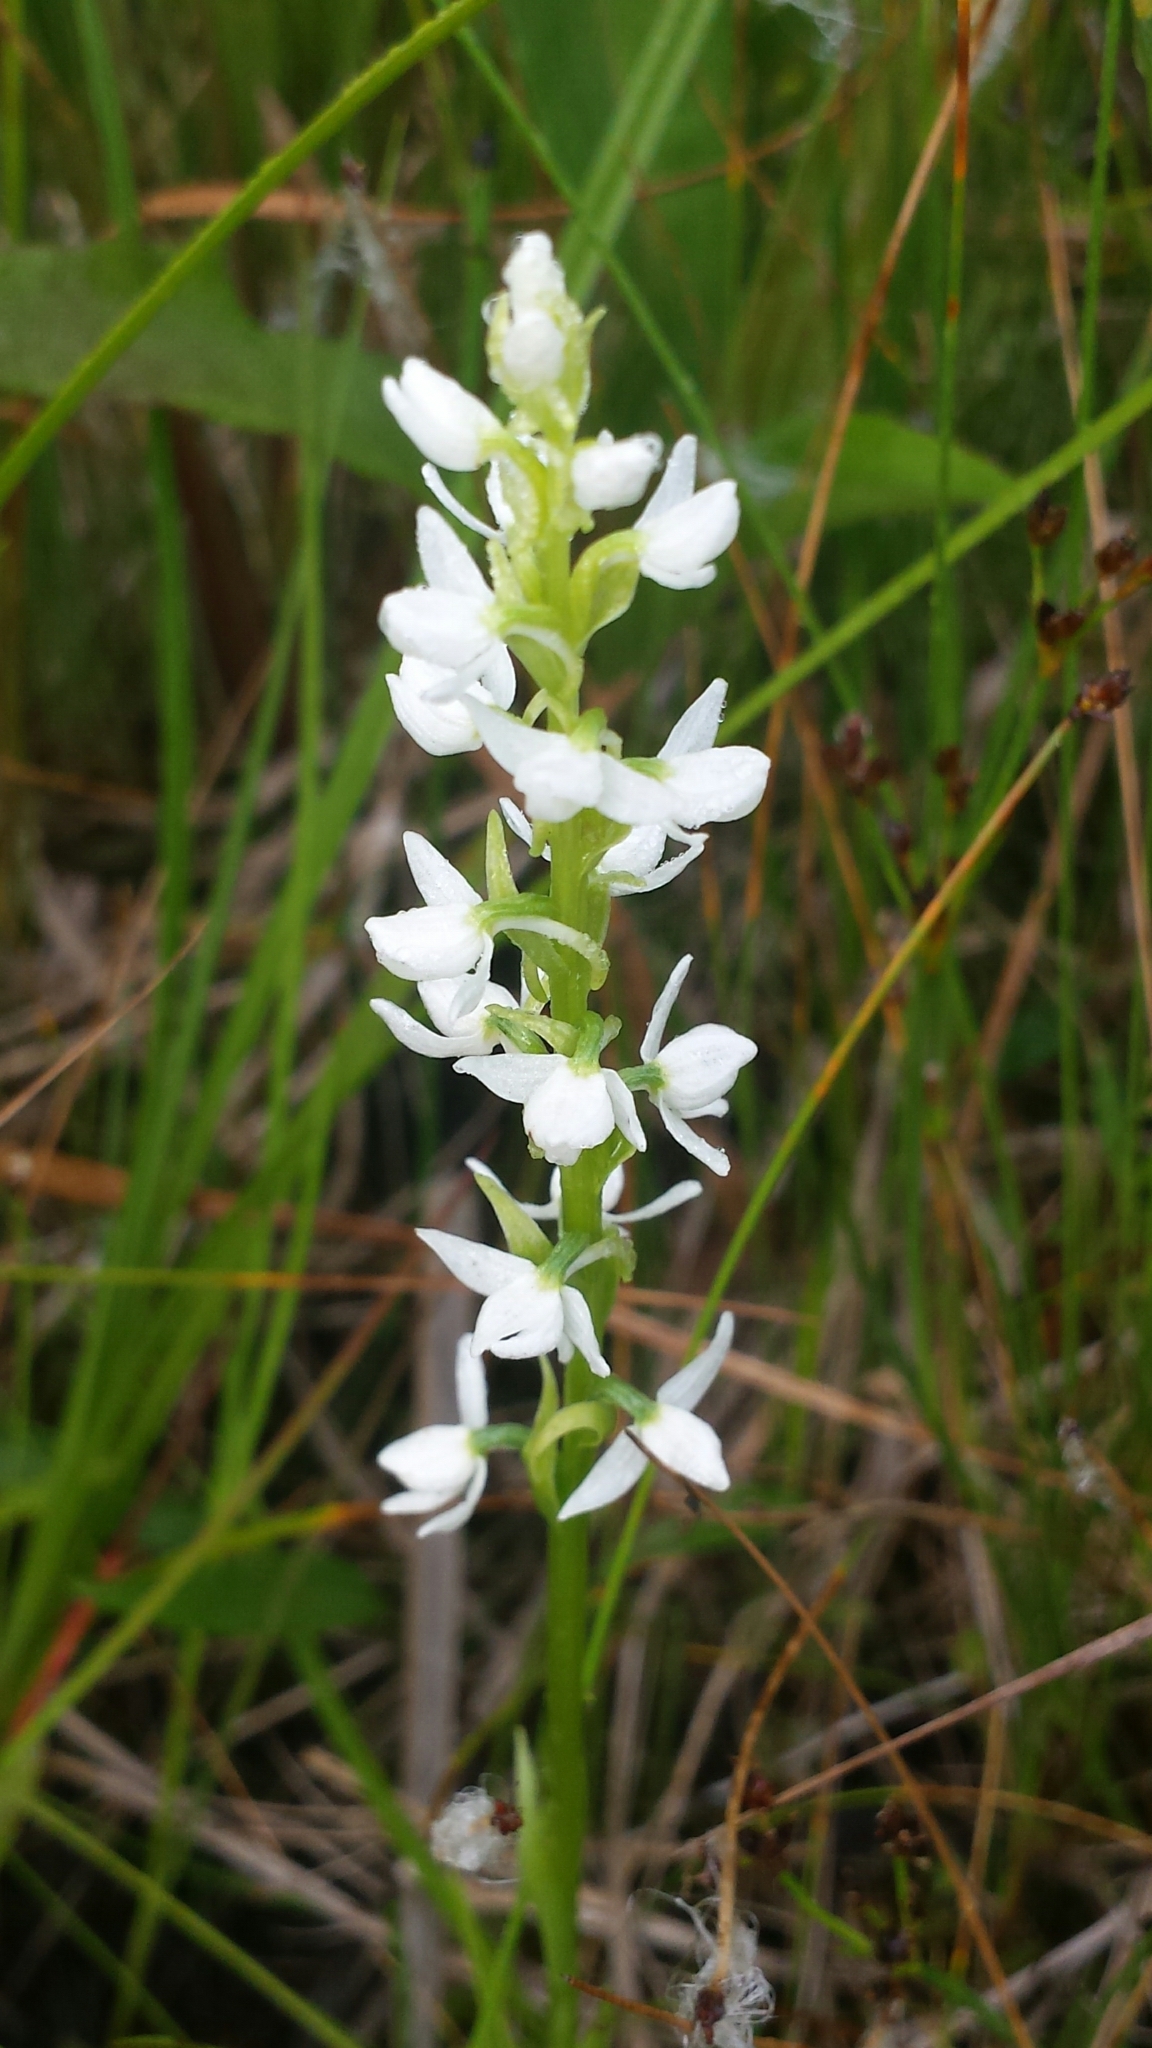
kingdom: Plantae
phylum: Tracheophyta
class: Liliopsida
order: Asparagales
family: Orchidaceae
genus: Platanthera
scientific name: Platanthera dilatata
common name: Bog candles
